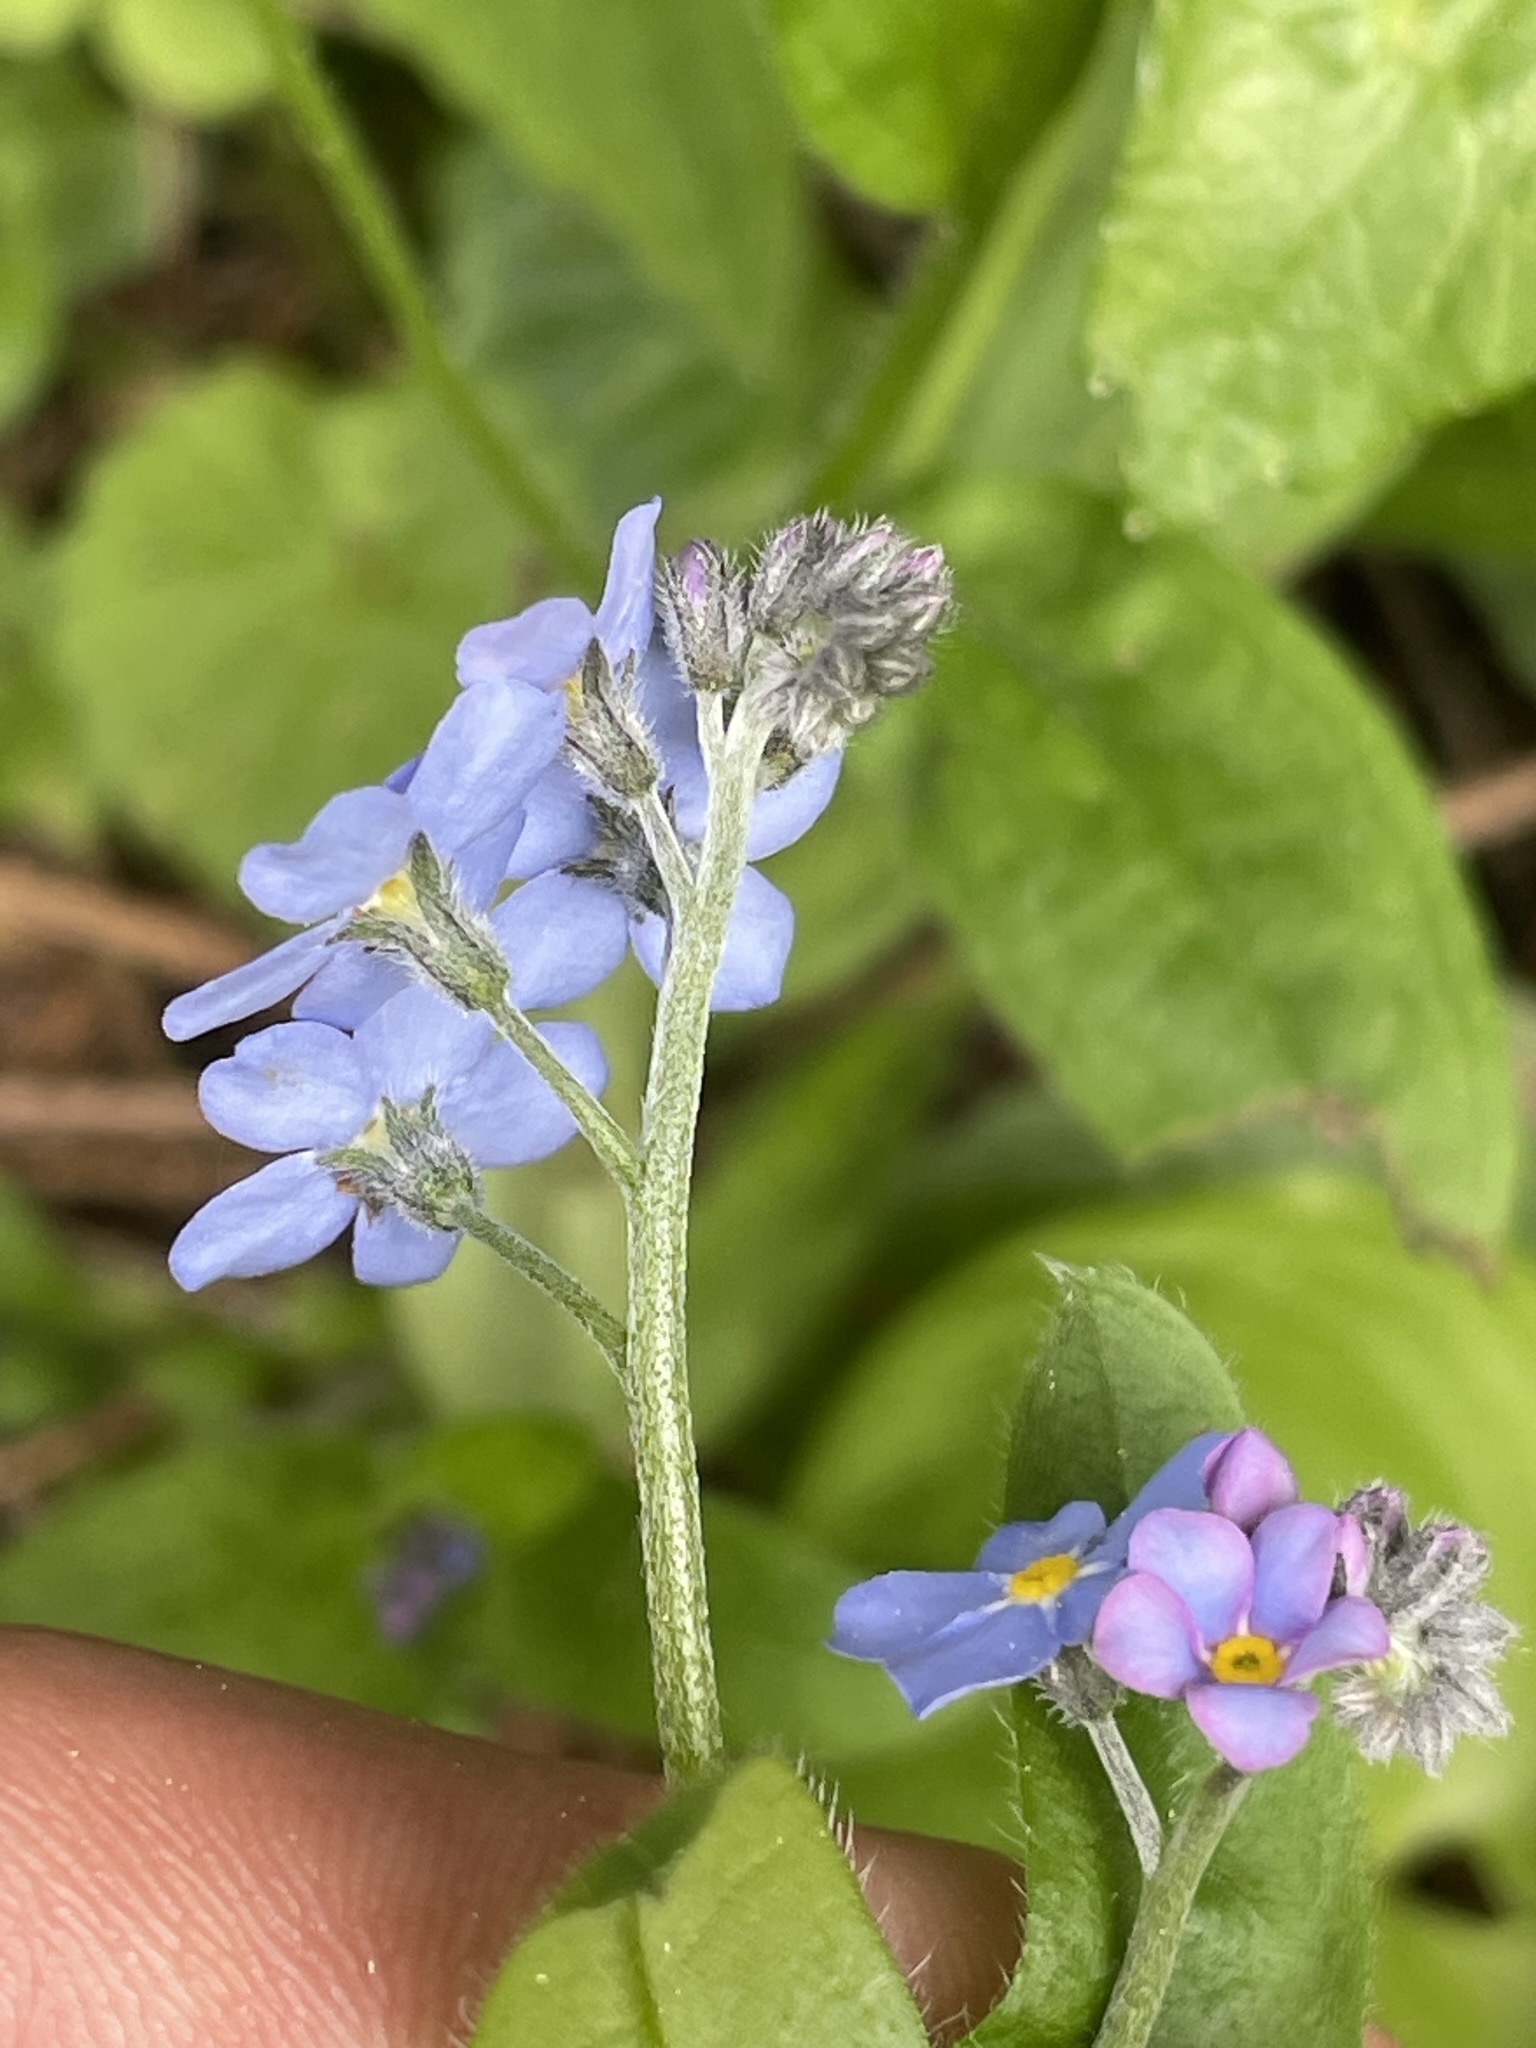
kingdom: Plantae
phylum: Tracheophyta
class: Magnoliopsida
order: Boraginales
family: Boraginaceae
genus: Myosotis
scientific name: Myosotis sylvatica
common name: Wood forget-me-not
